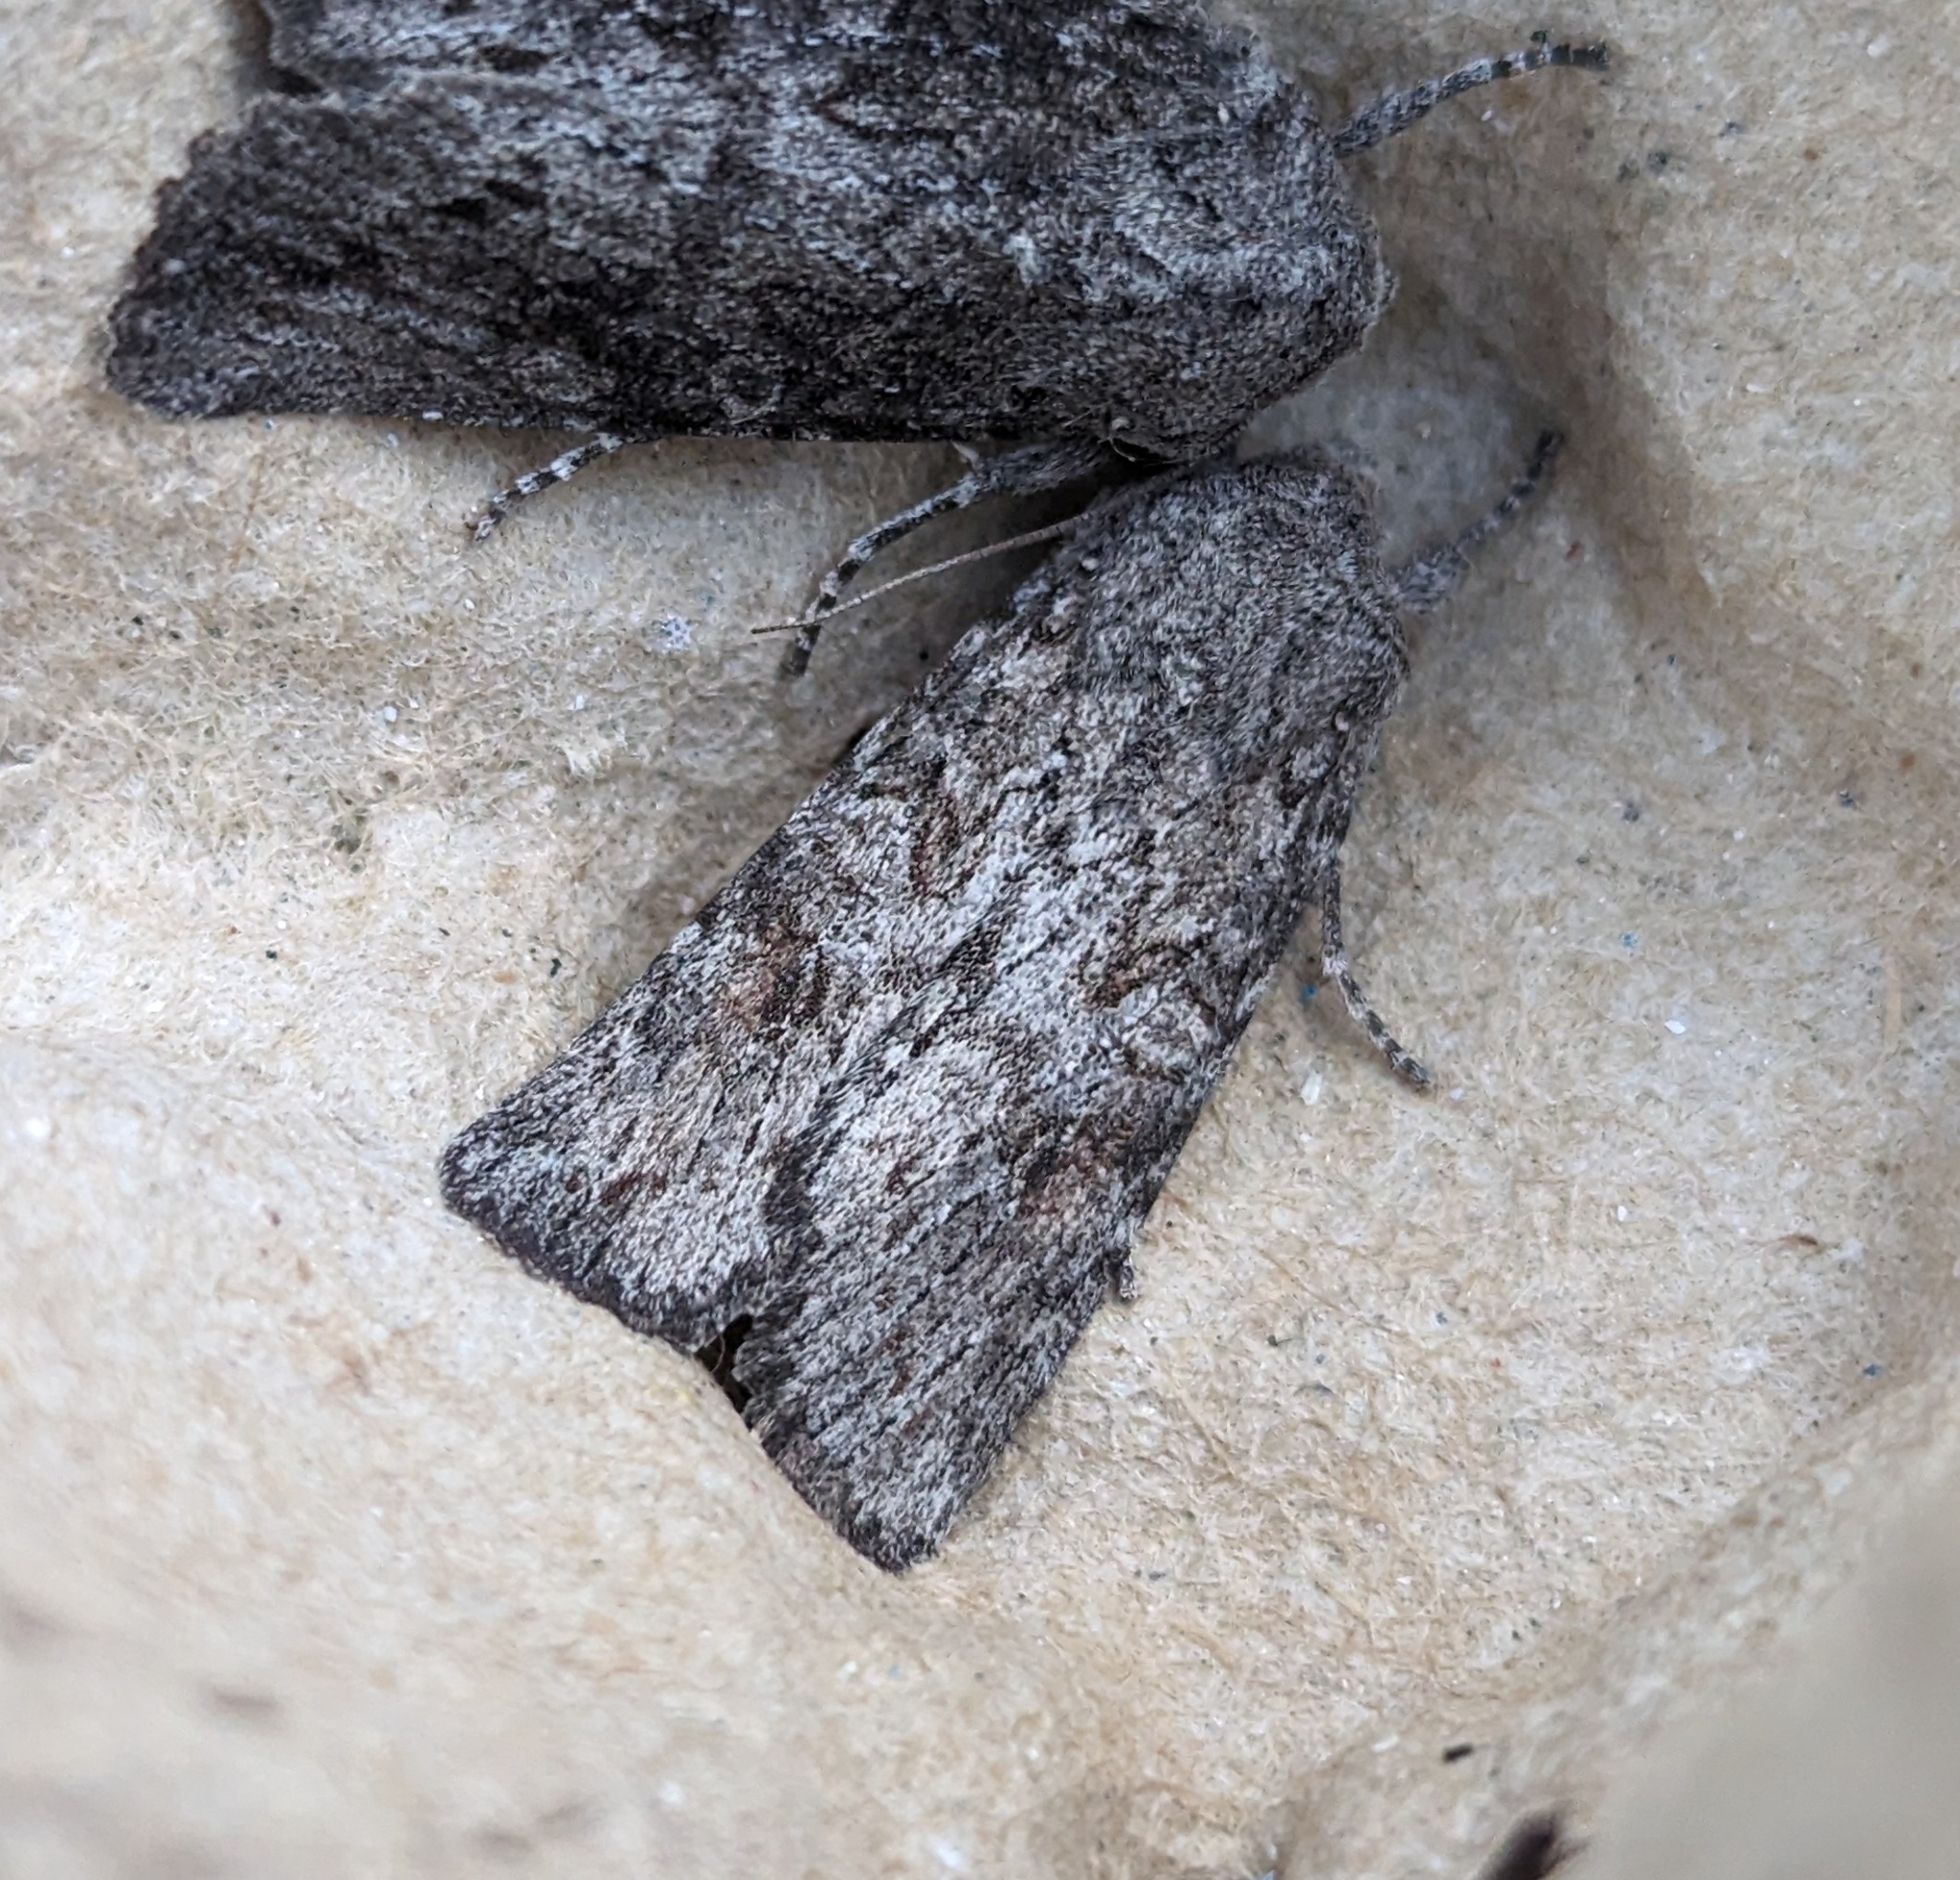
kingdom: Animalia
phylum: Arthropoda
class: Insecta
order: Lepidoptera
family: Noctuidae
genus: Egira
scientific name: Egira curialis
